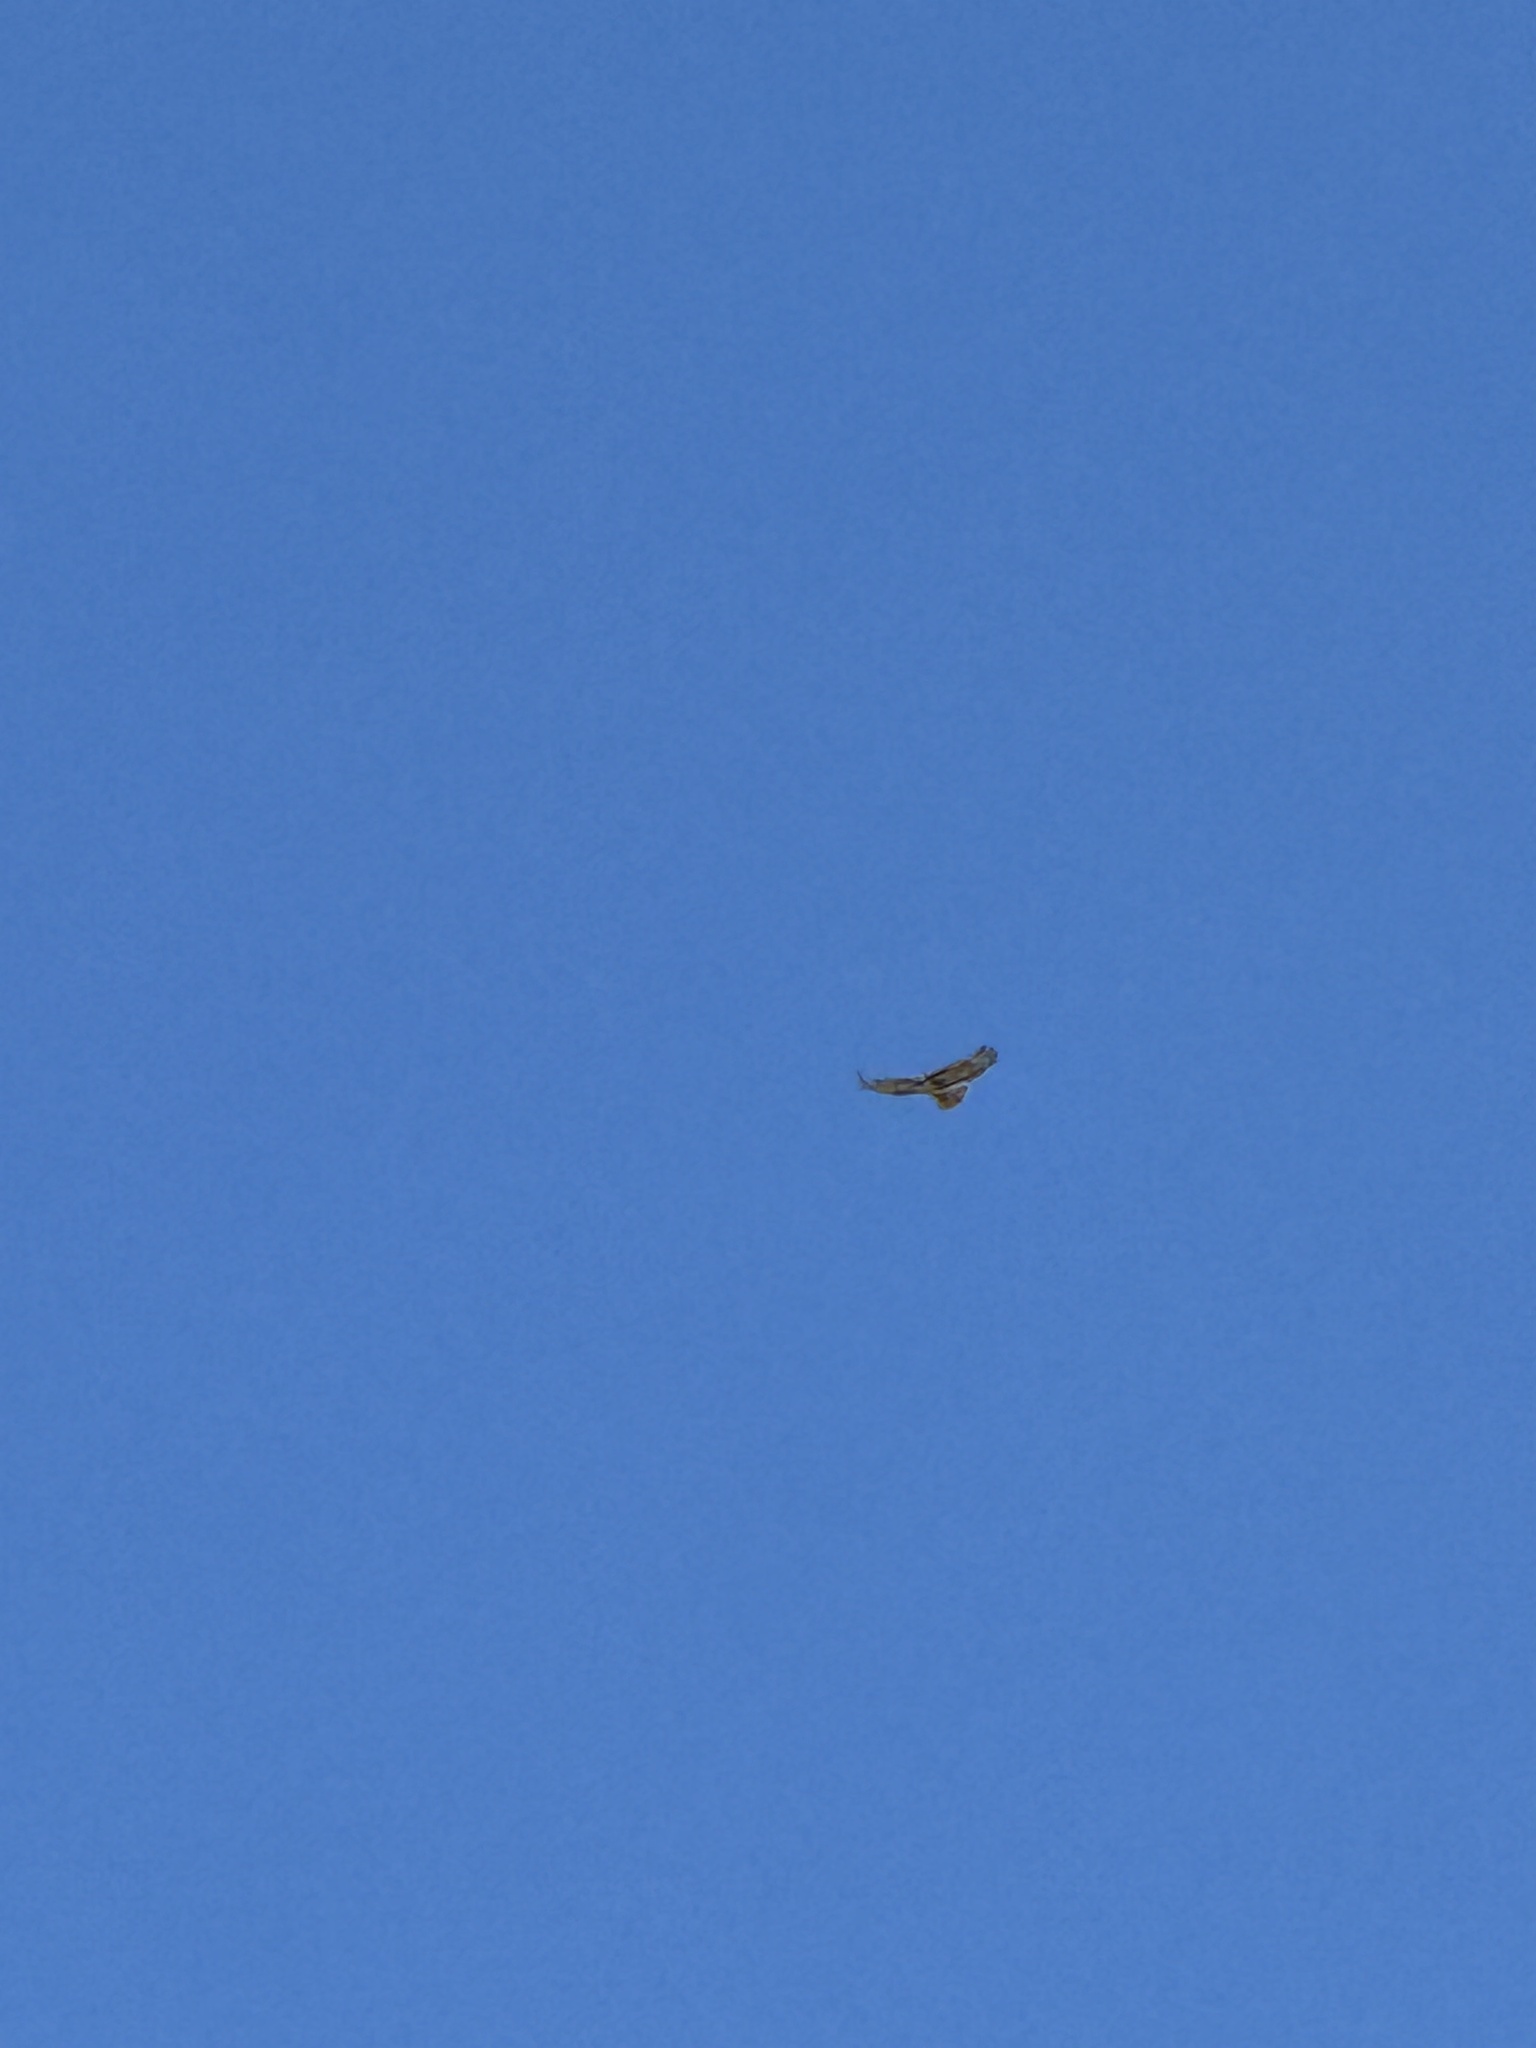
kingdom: Animalia
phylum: Chordata
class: Aves
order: Accipitriformes
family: Accipitridae
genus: Buteo
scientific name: Buteo jamaicensis
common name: Red-tailed hawk
